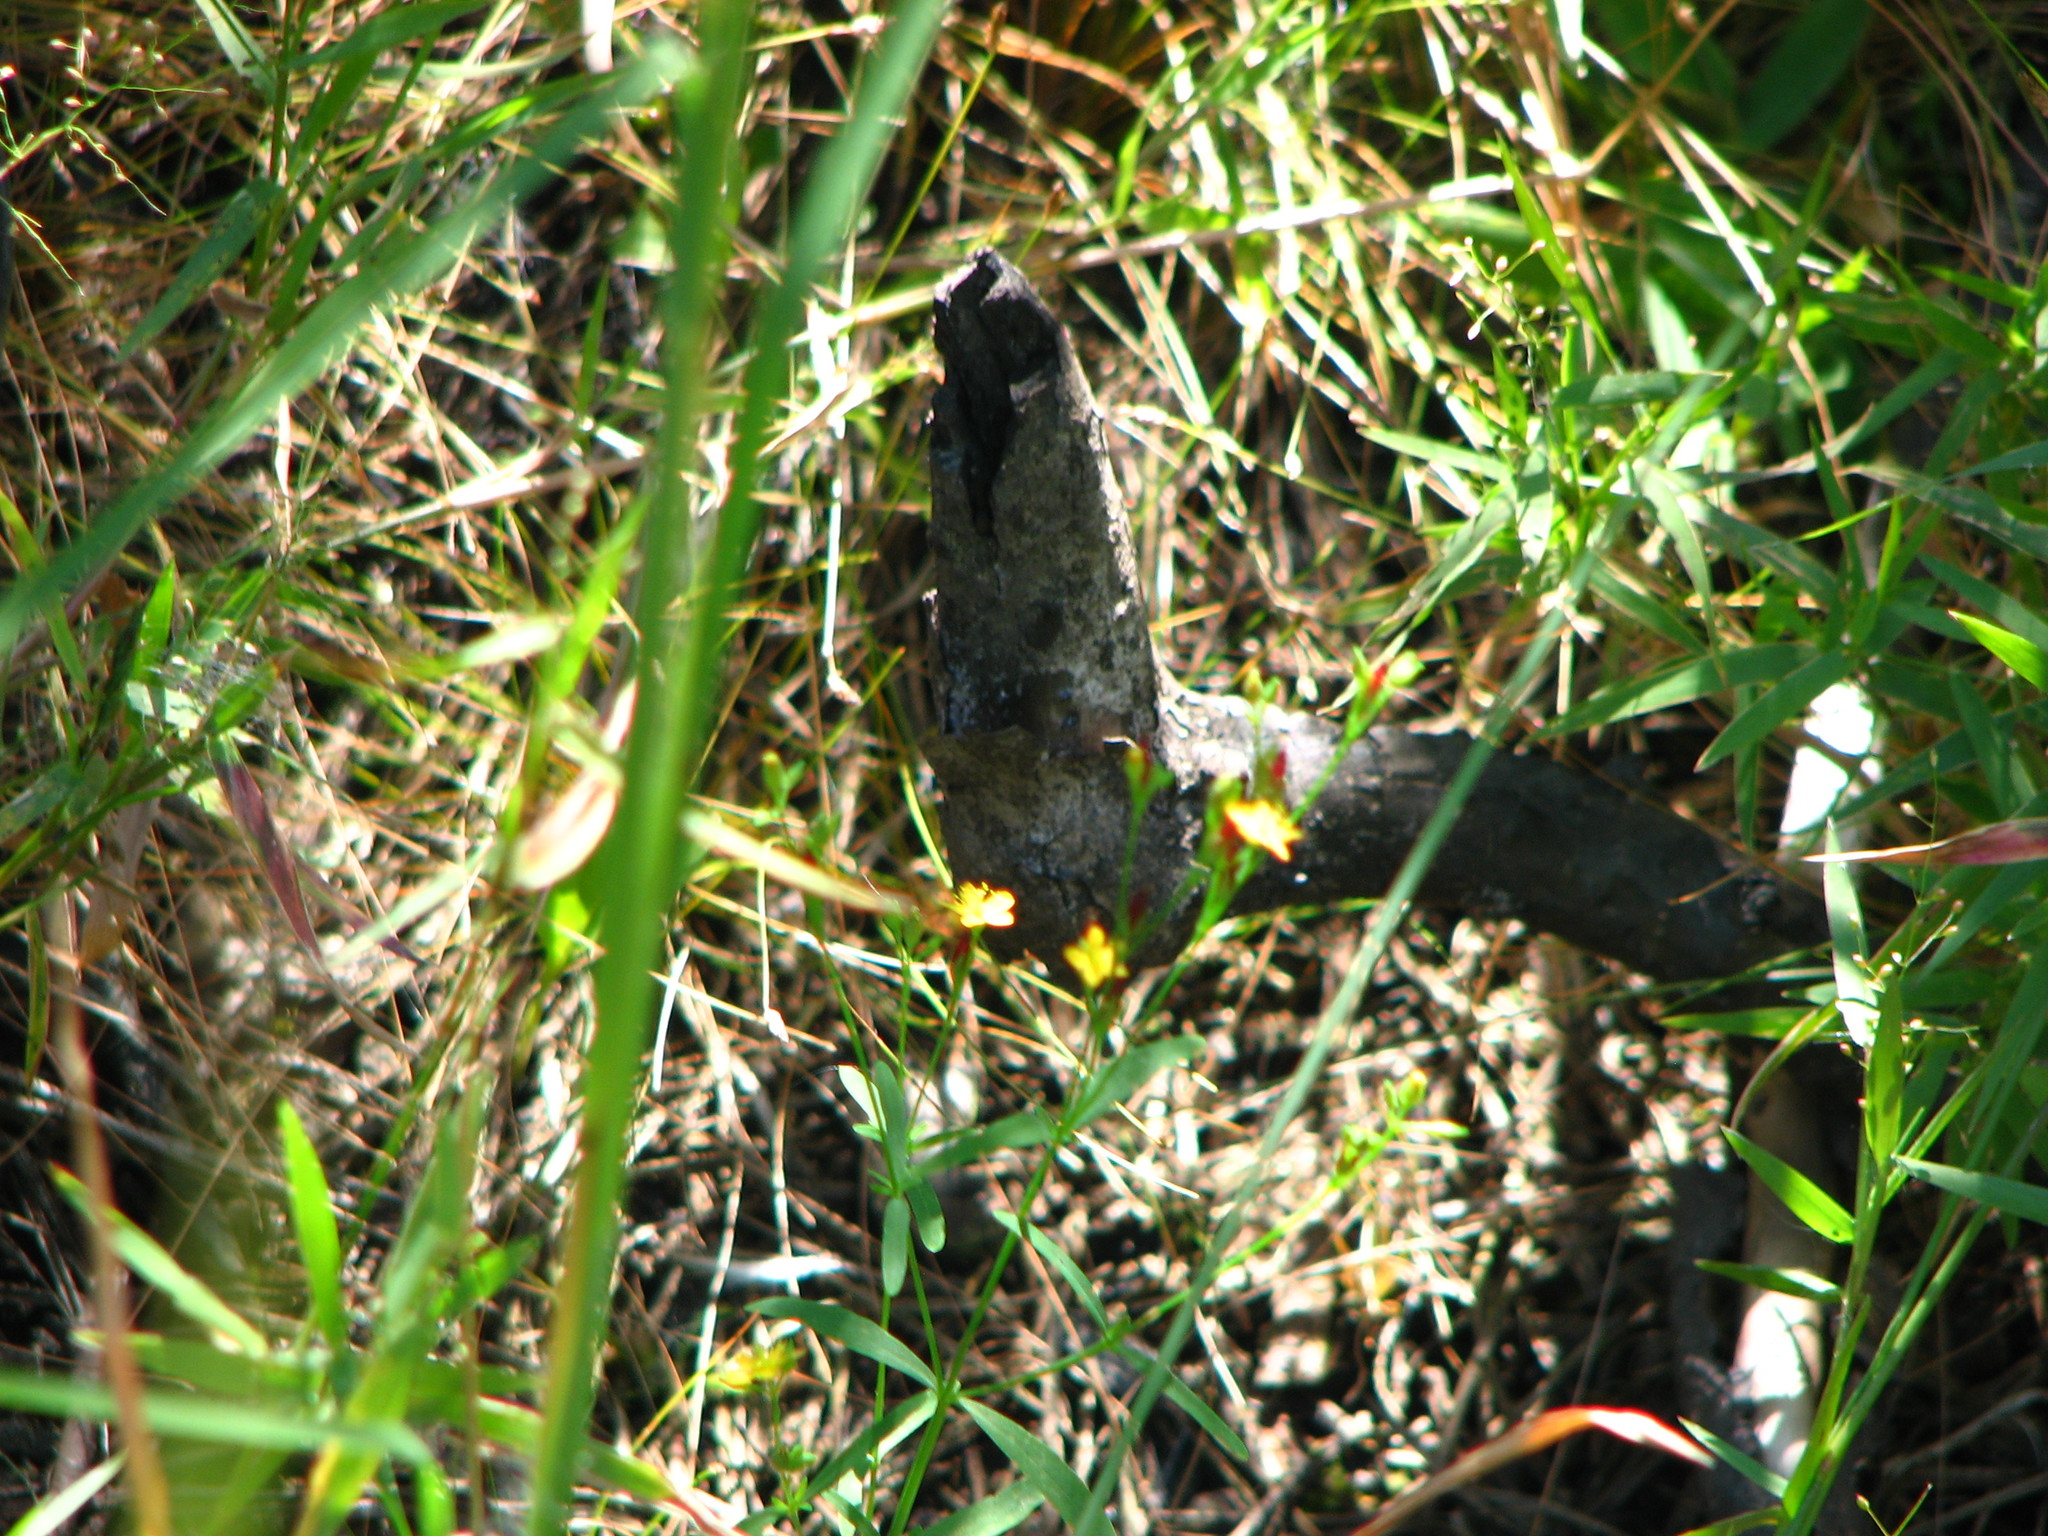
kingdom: Plantae
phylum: Tracheophyta
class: Magnoliopsida
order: Malpighiales
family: Hypericaceae
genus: Hypericum
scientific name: Hypericum canadense
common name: Irish st. john's-wort
